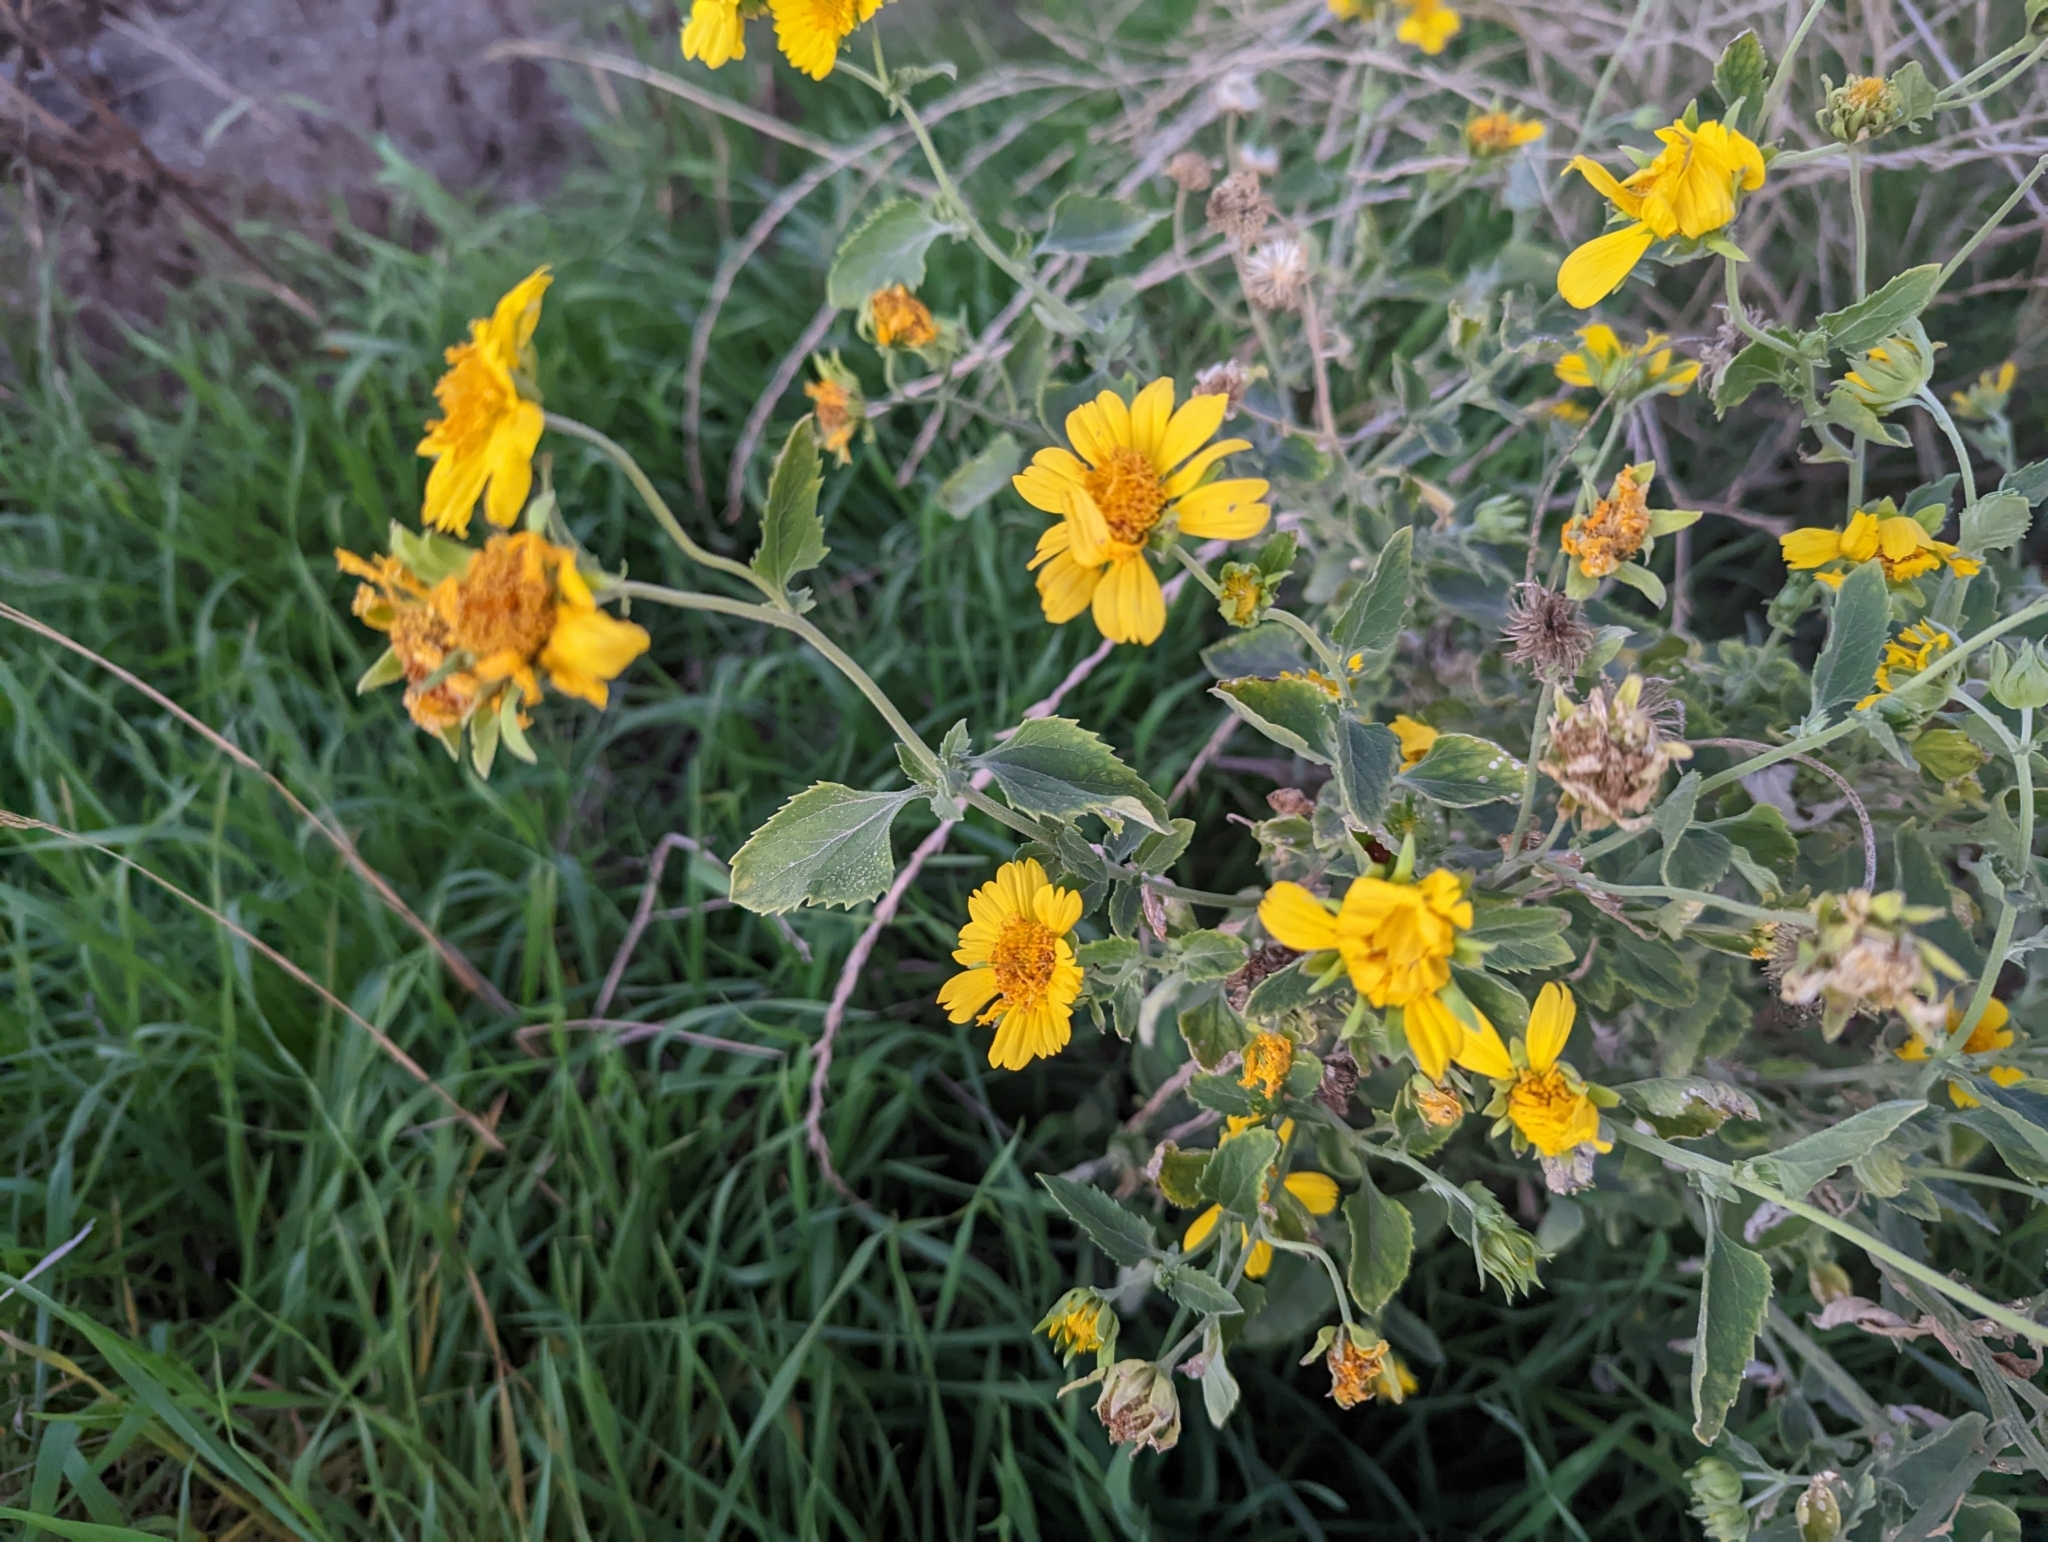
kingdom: Plantae
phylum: Tracheophyta
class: Magnoliopsida
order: Asterales
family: Asteraceae
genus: Verbesina
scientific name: Verbesina encelioides
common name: Golden crownbeard
